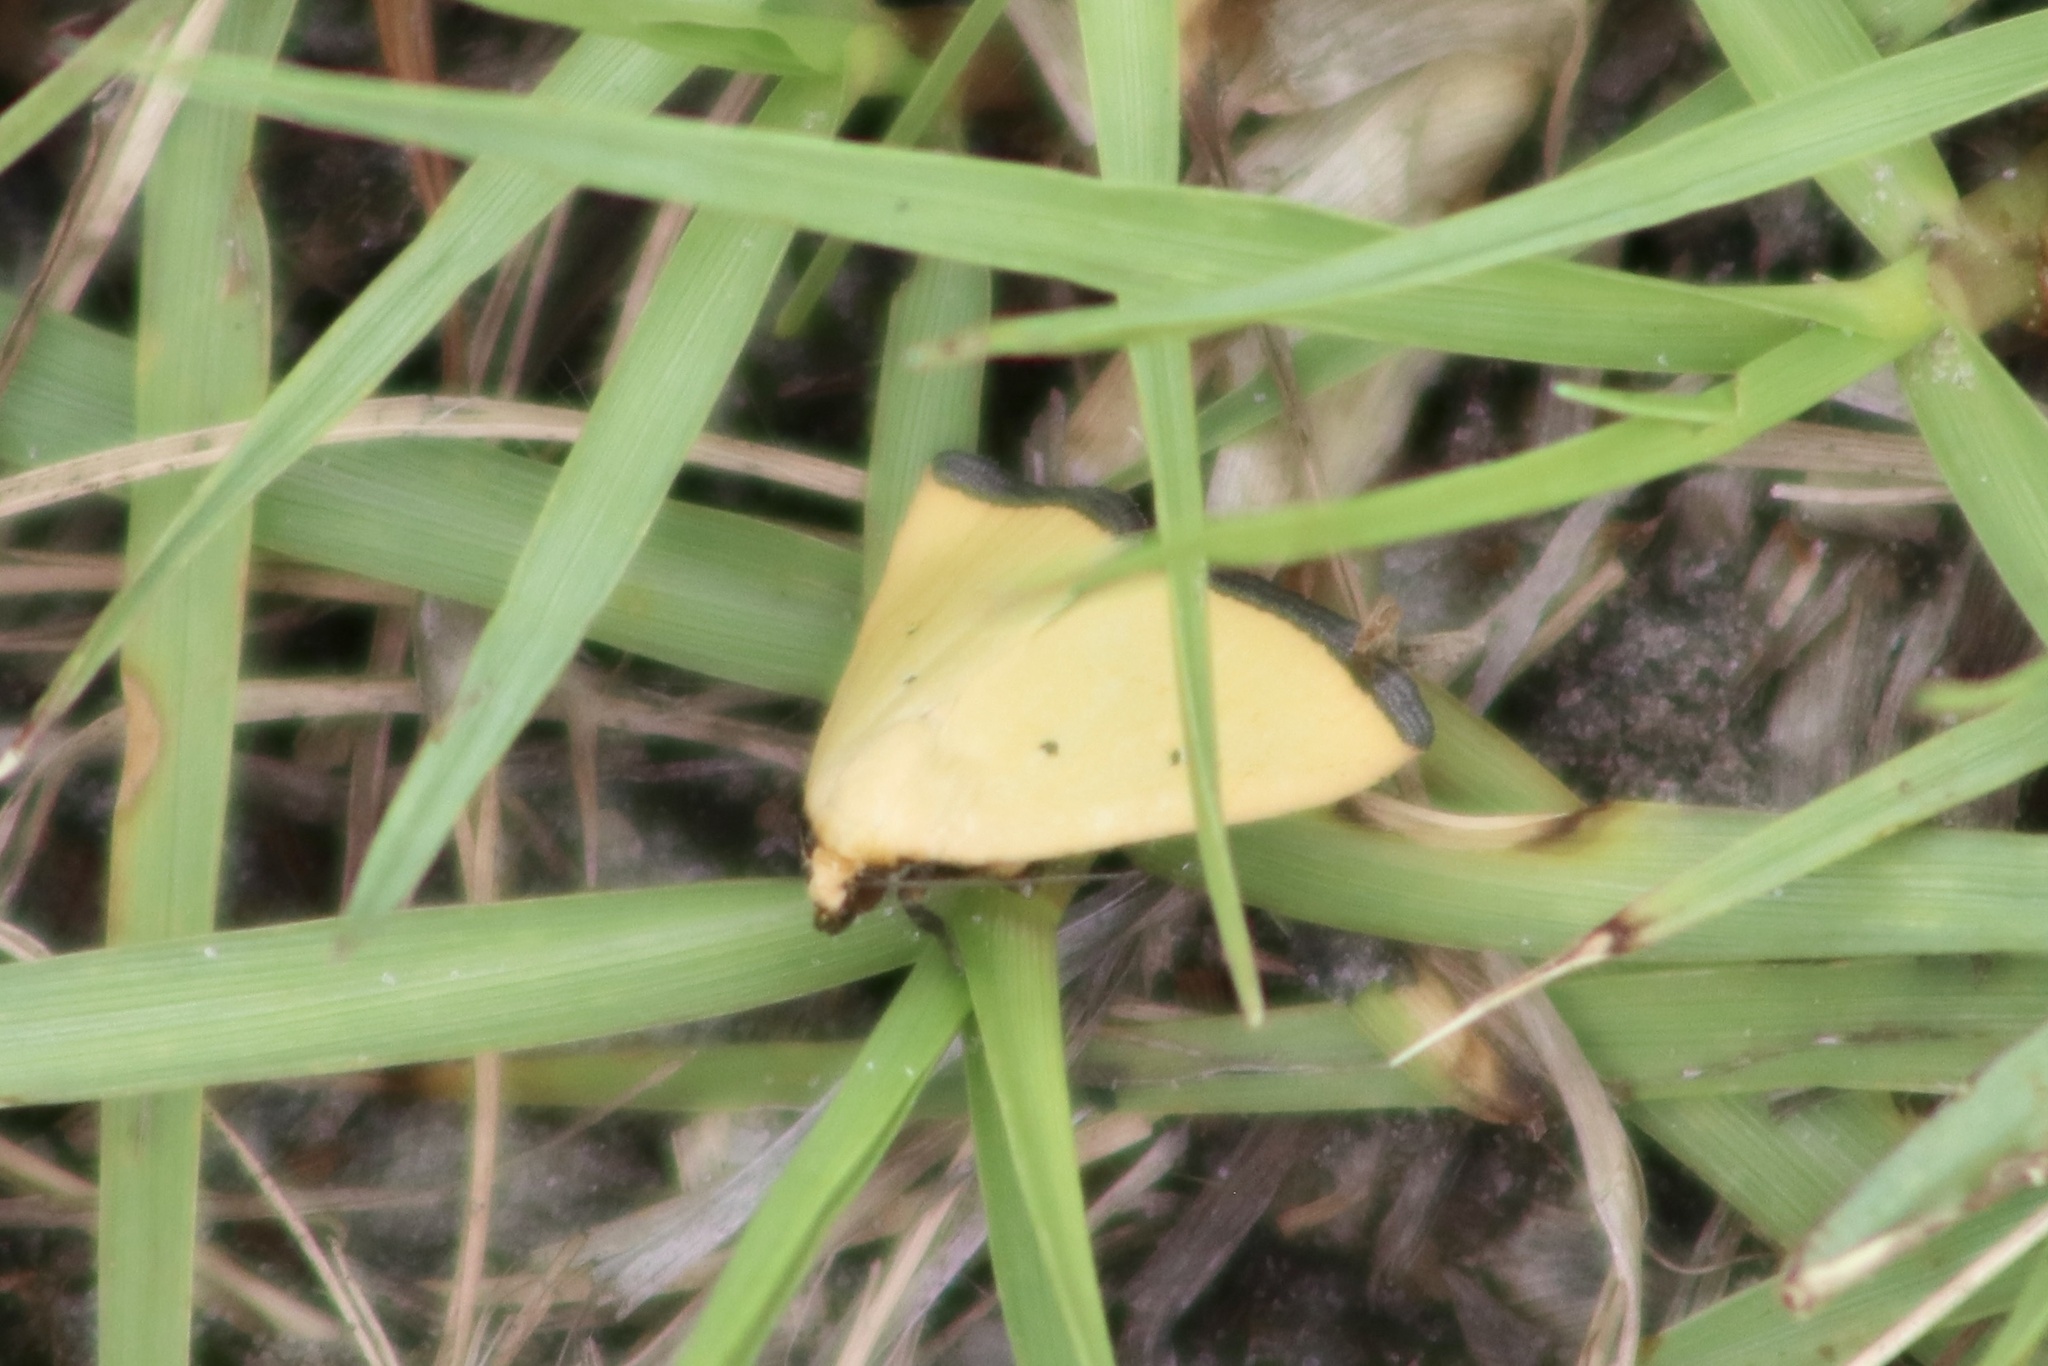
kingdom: Animalia
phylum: Arthropoda
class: Insecta
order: Lepidoptera
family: Noctuidae
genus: Marimatha
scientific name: Marimatha nigrofimbria
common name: Black-bordered lemon moth
